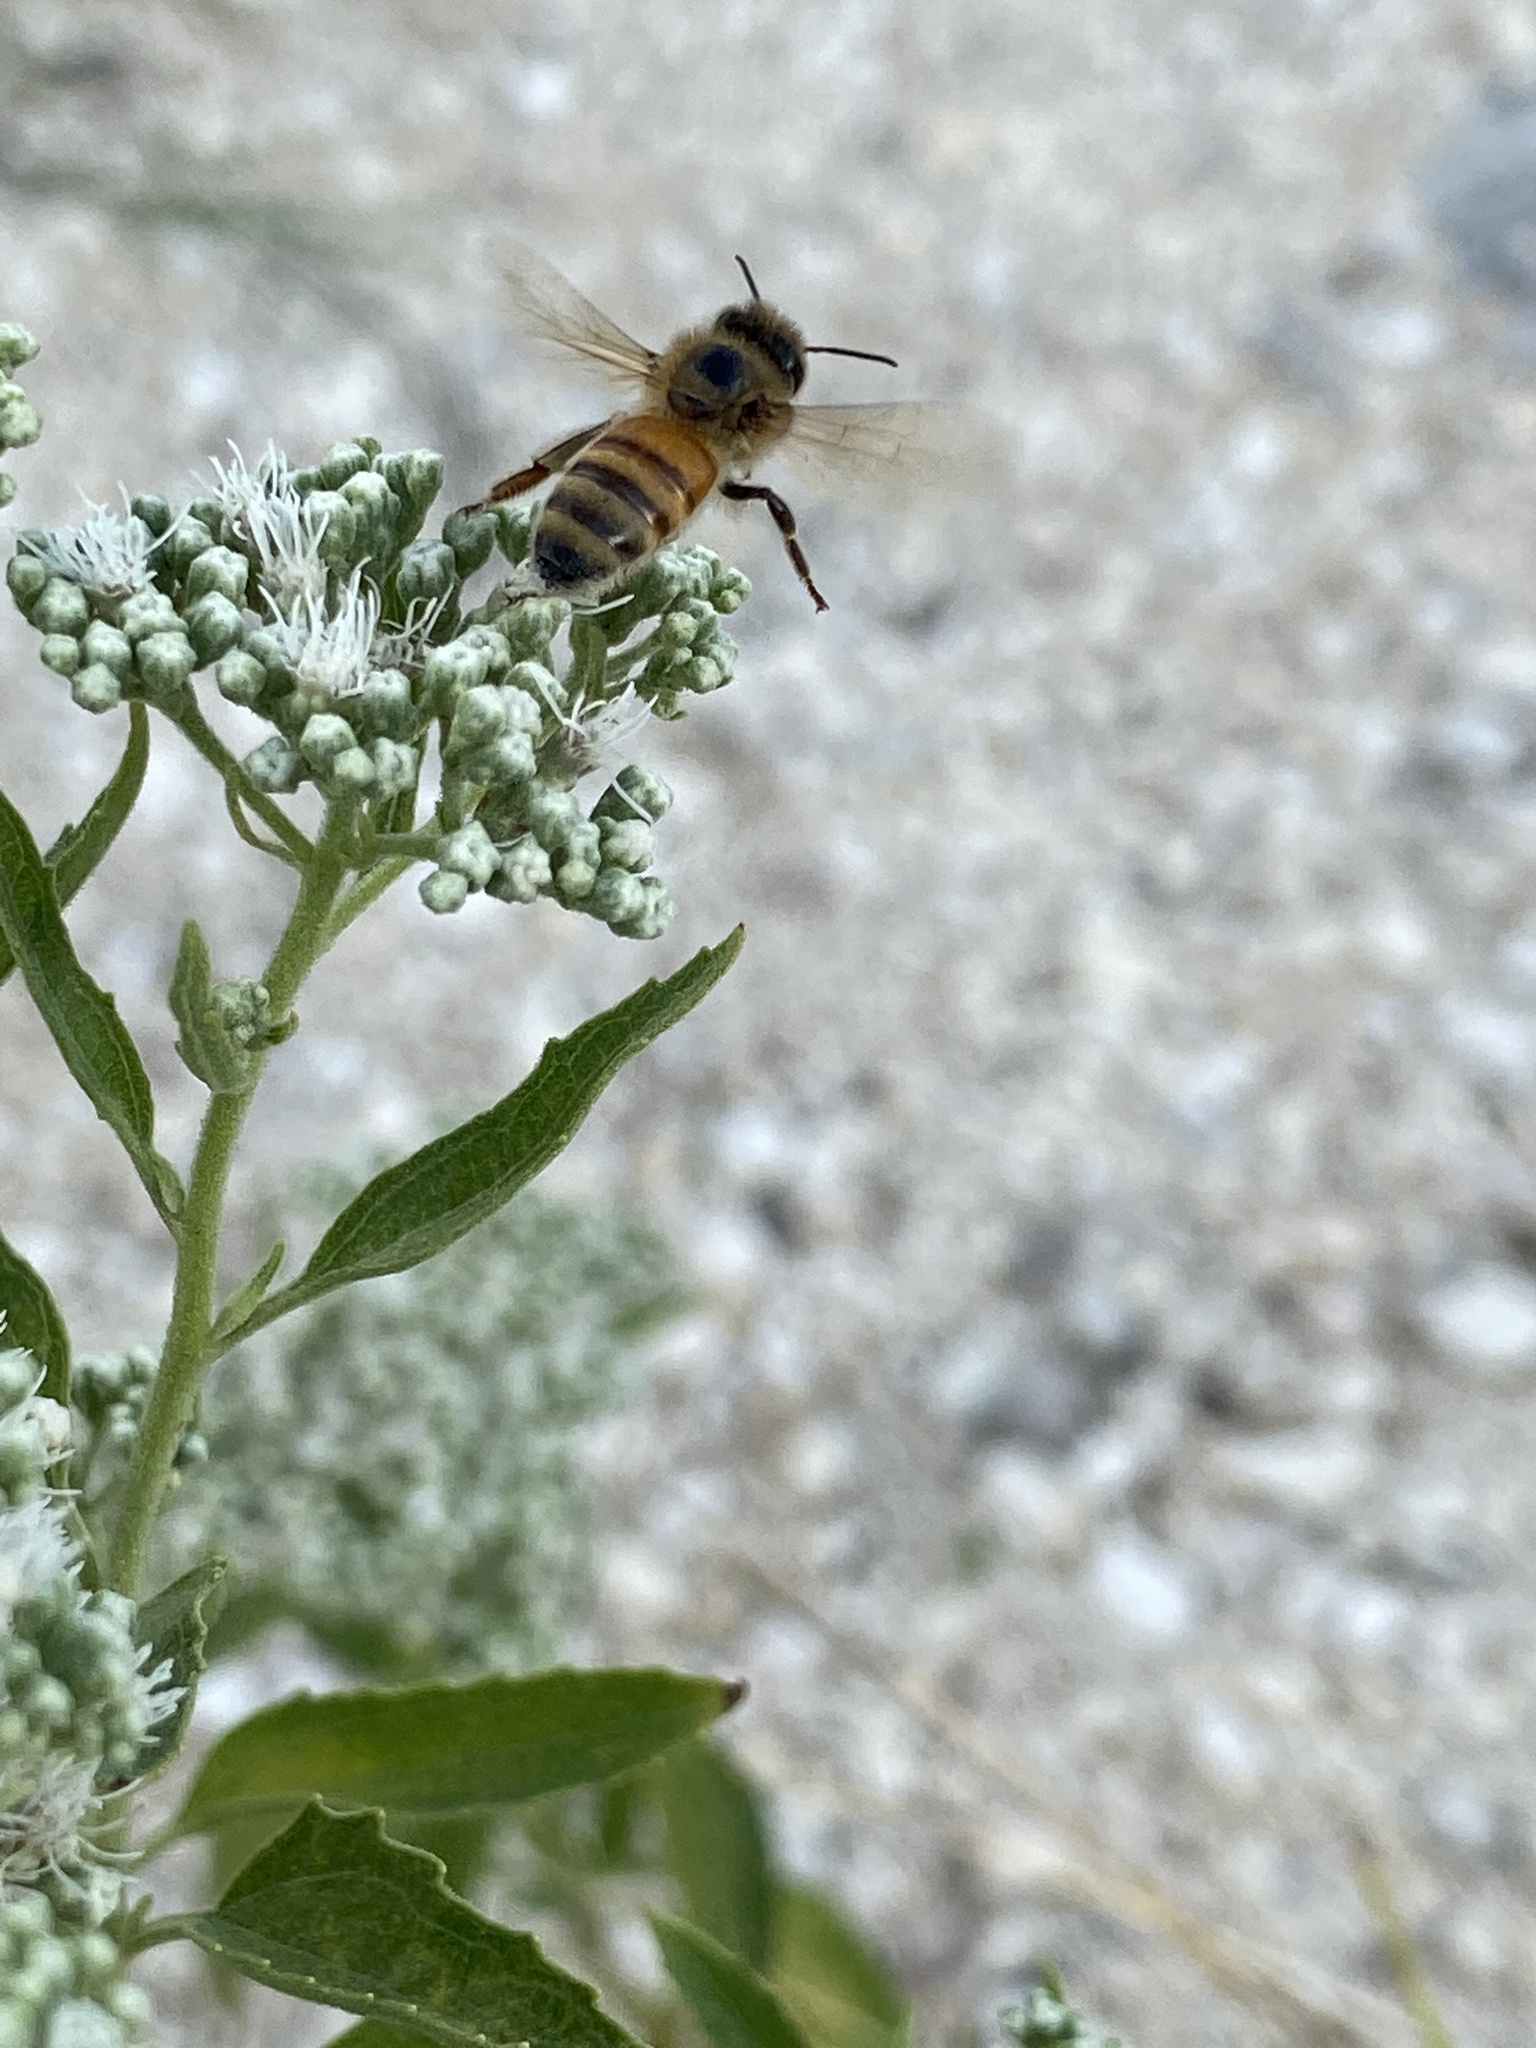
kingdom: Animalia
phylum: Arthropoda
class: Insecta
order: Hymenoptera
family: Apidae
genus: Apis
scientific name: Apis mellifera
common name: Honey bee
